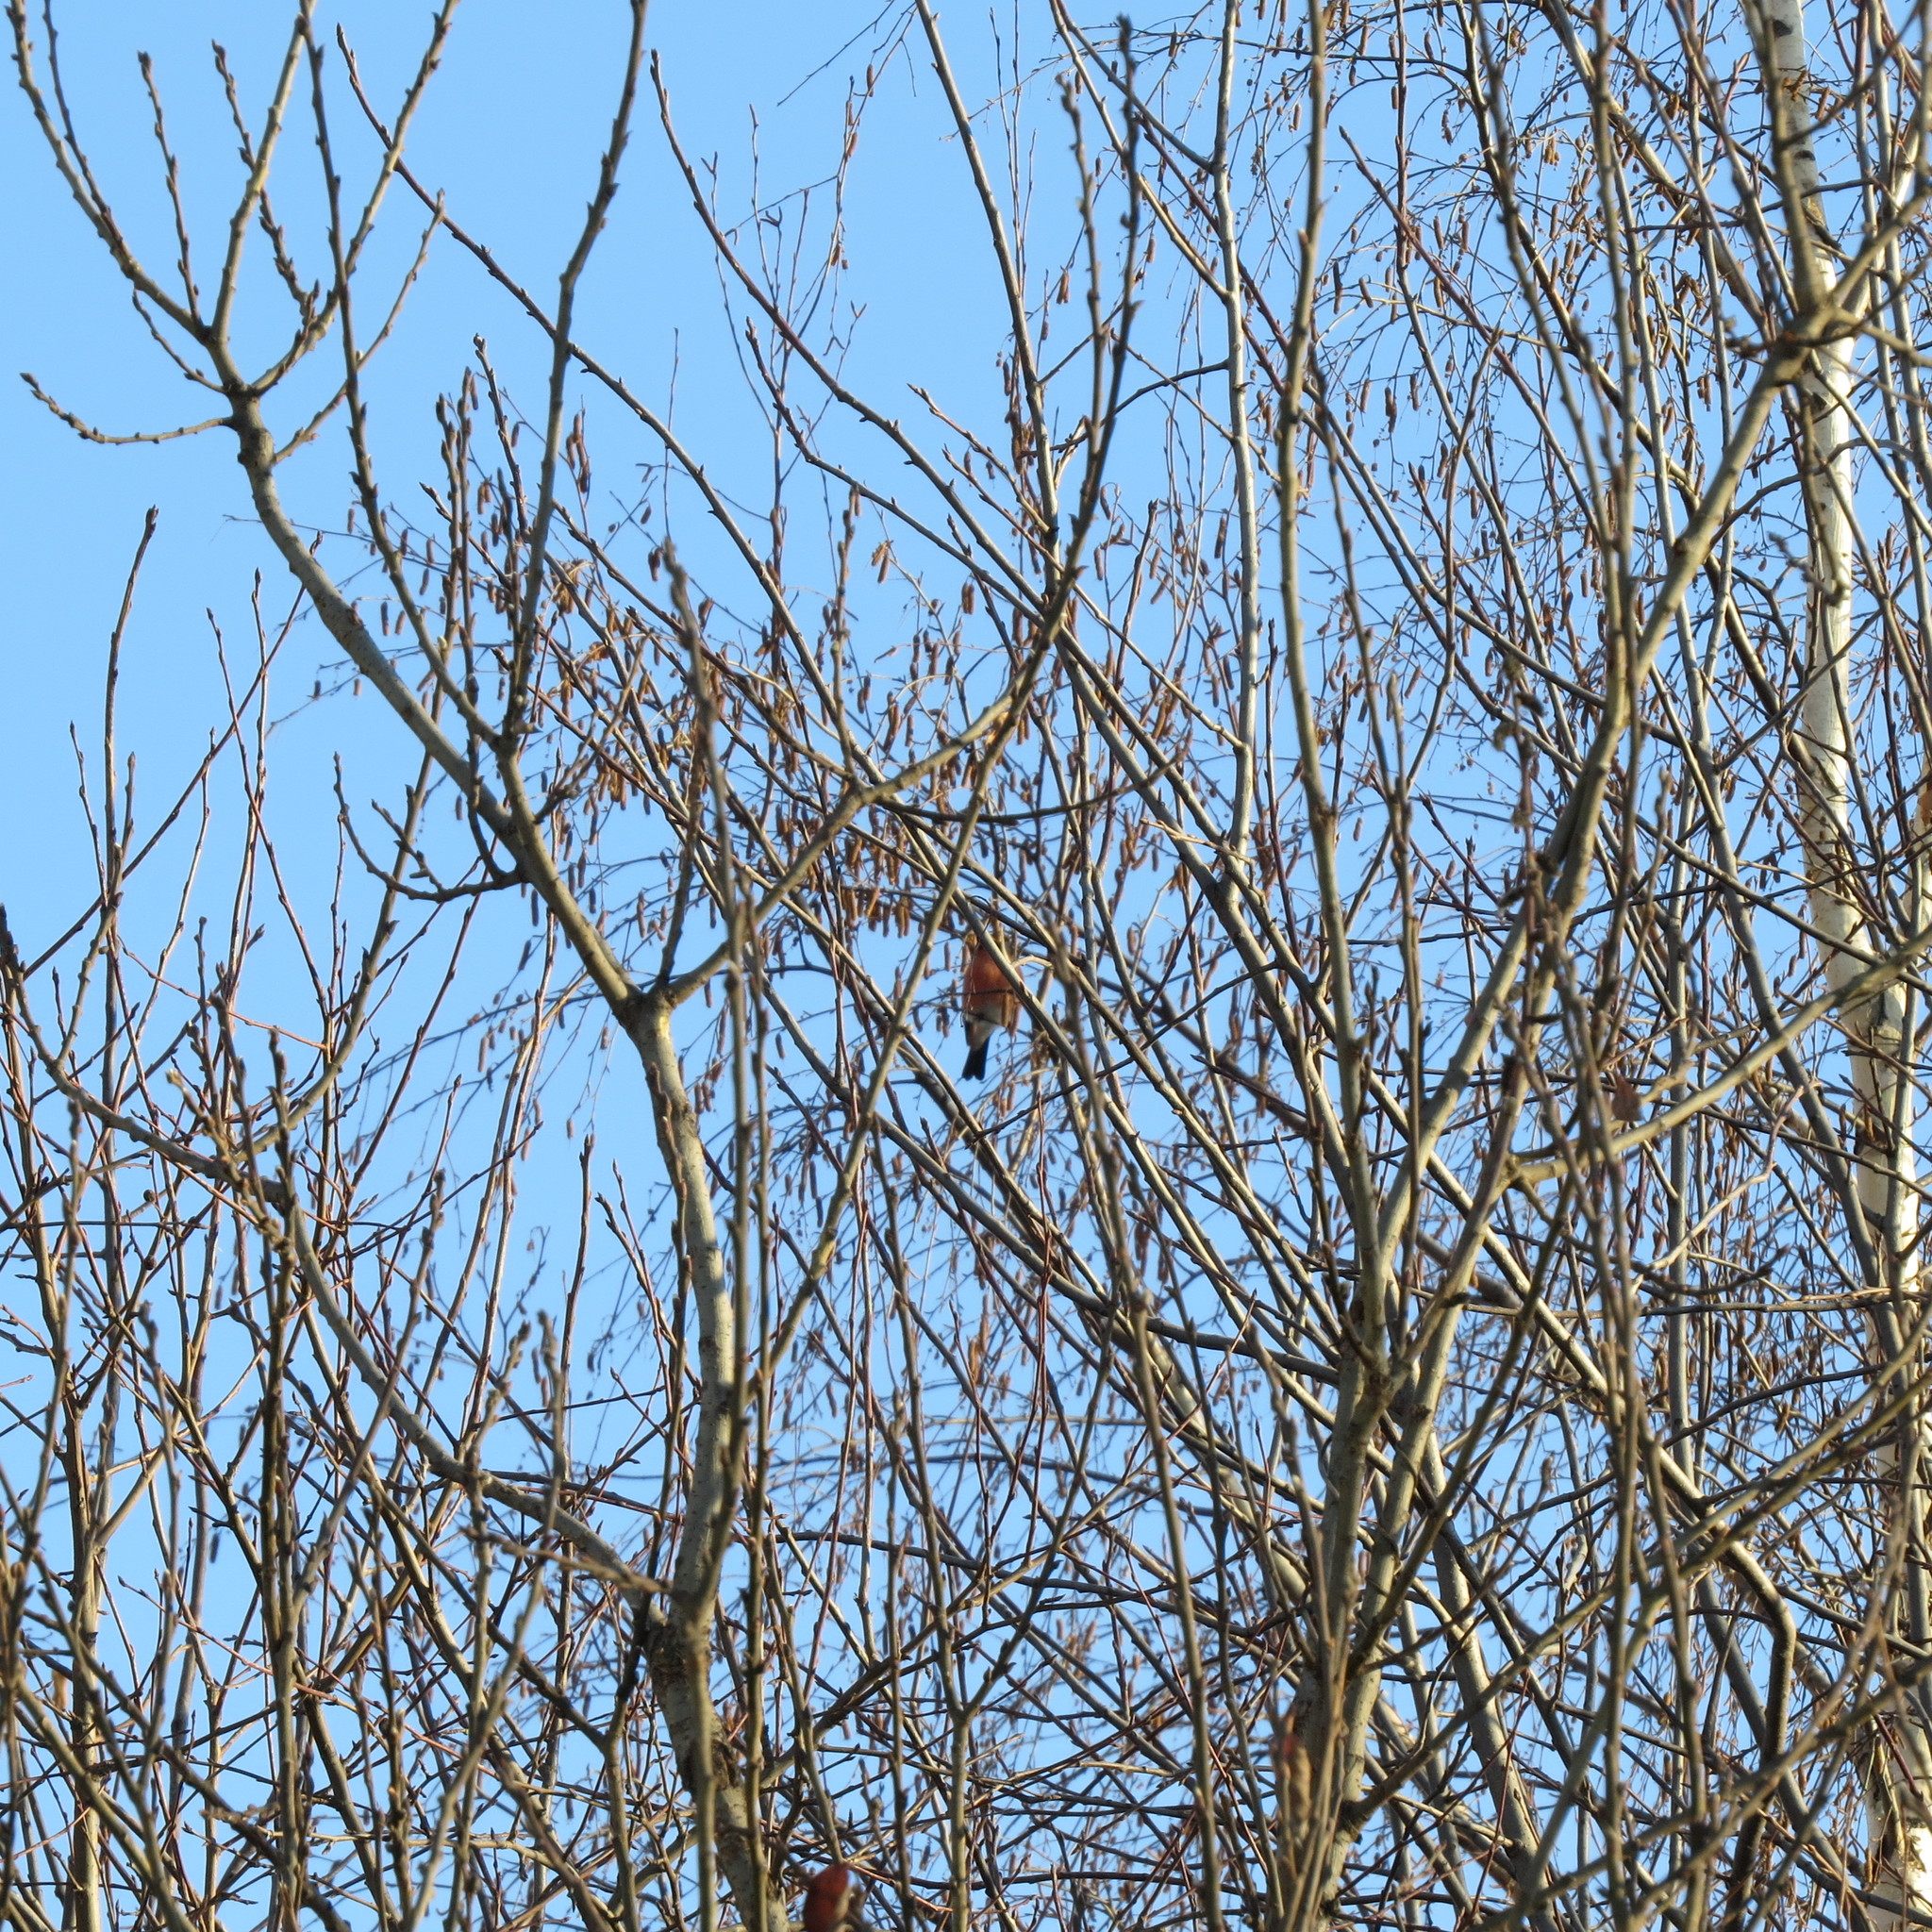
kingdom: Animalia
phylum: Chordata
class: Aves
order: Passeriformes
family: Fringillidae
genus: Pyrrhula
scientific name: Pyrrhula pyrrhula
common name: Eurasian bullfinch
